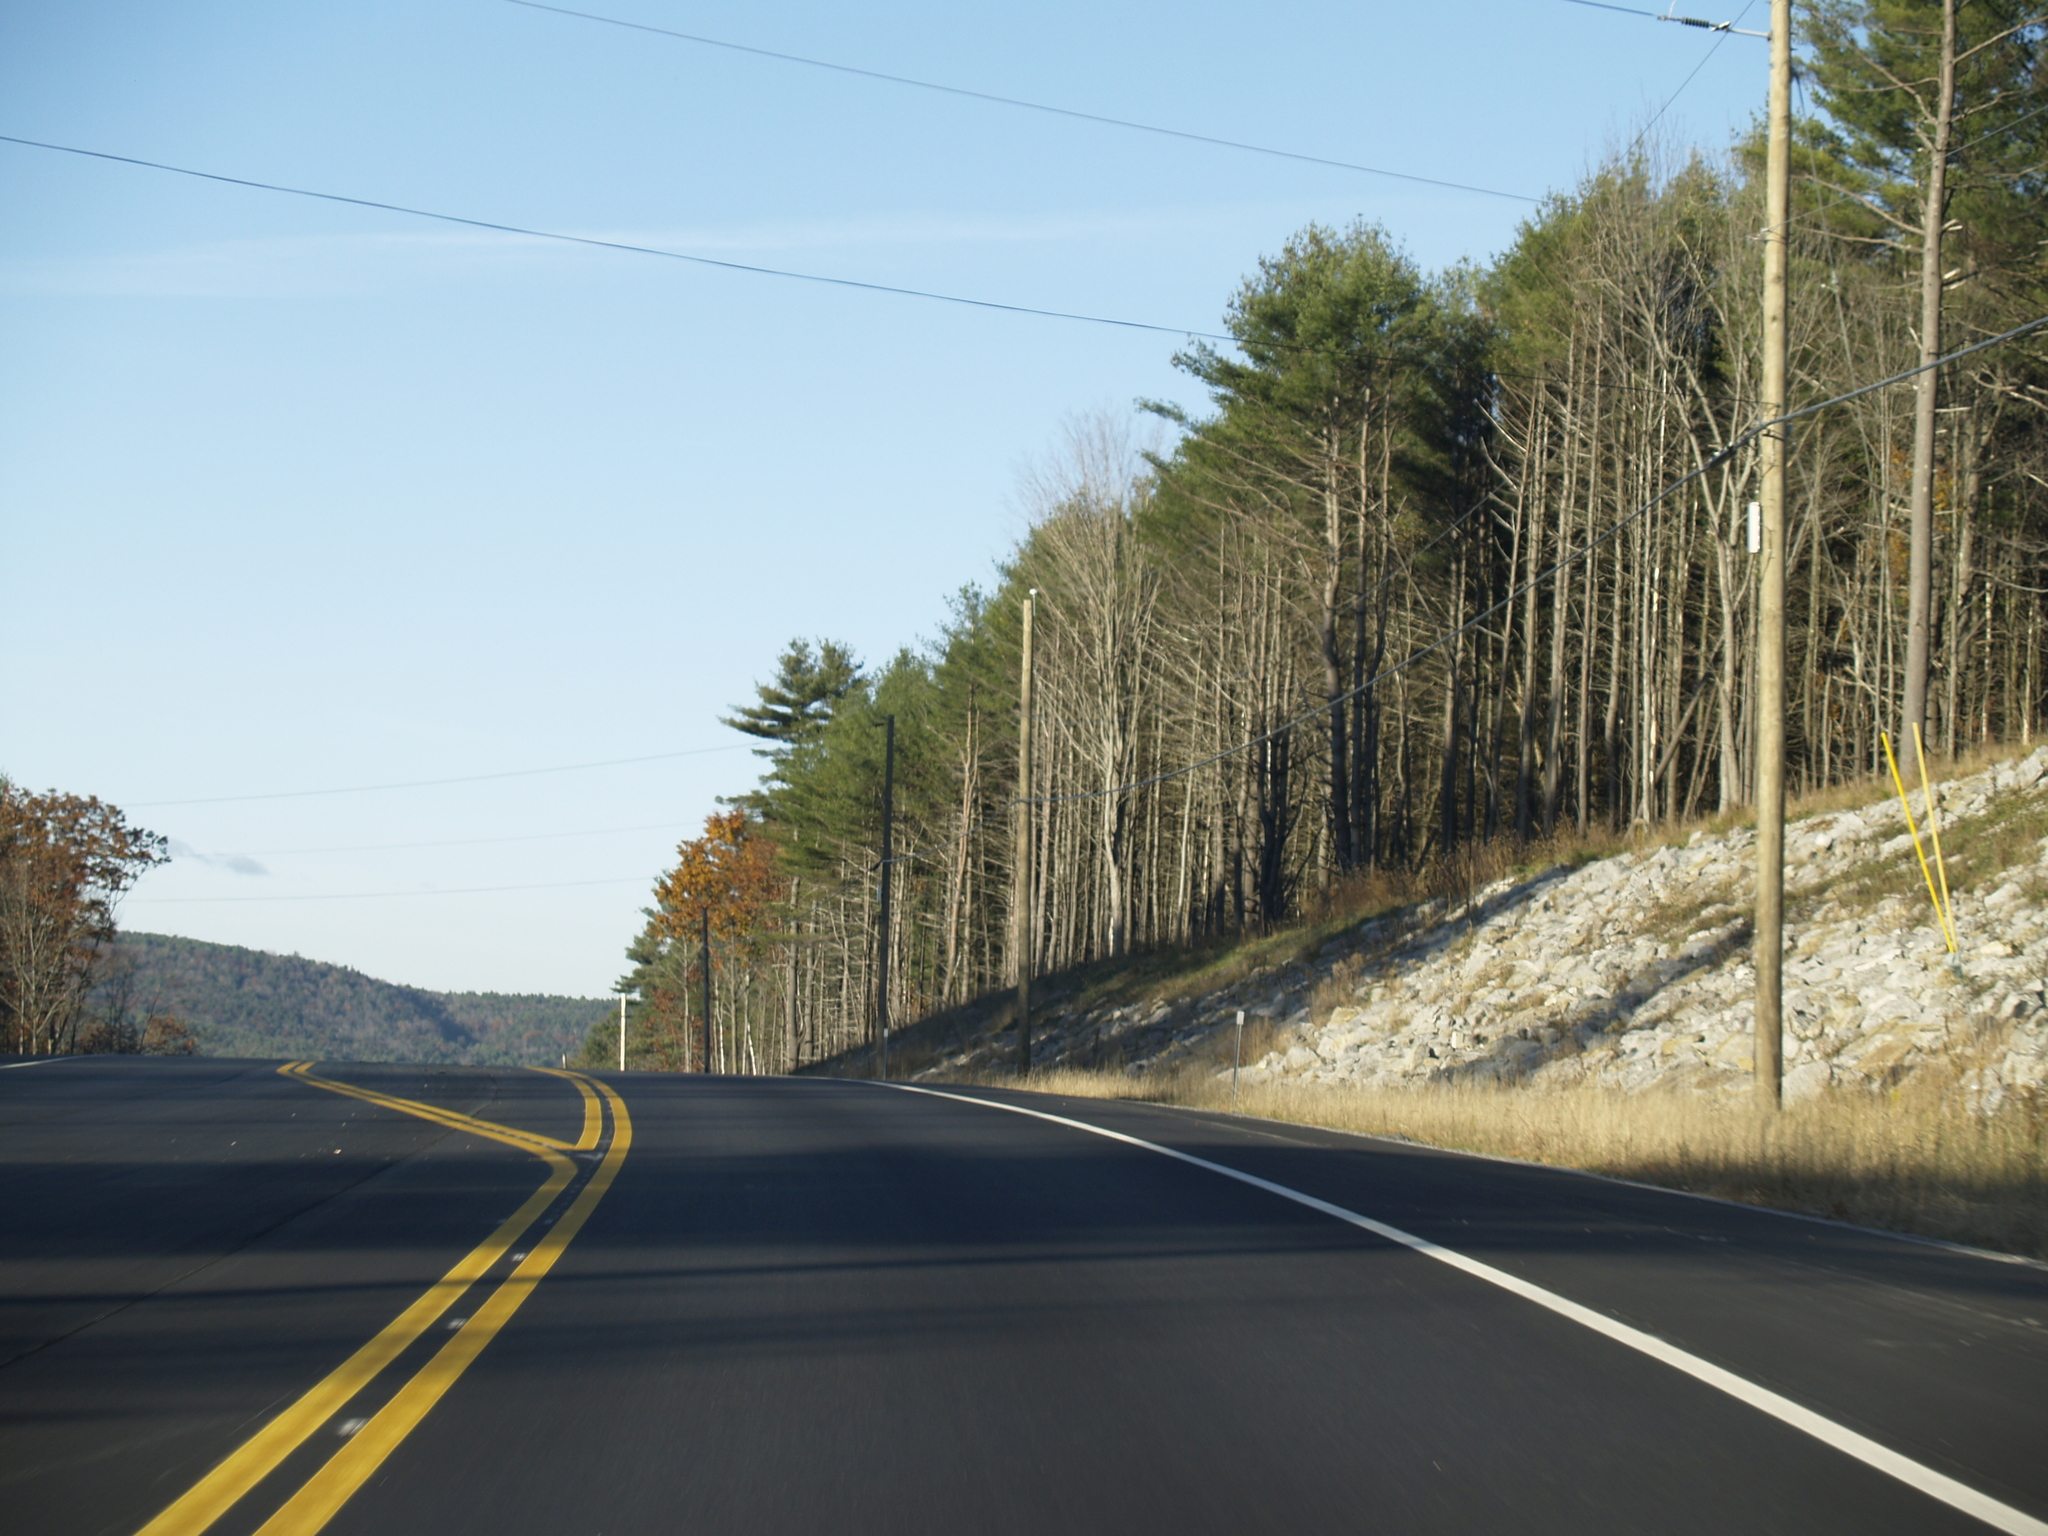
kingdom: Plantae
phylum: Tracheophyta
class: Pinopsida
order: Pinales
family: Pinaceae
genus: Pinus
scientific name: Pinus strobus
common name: Weymouth pine
